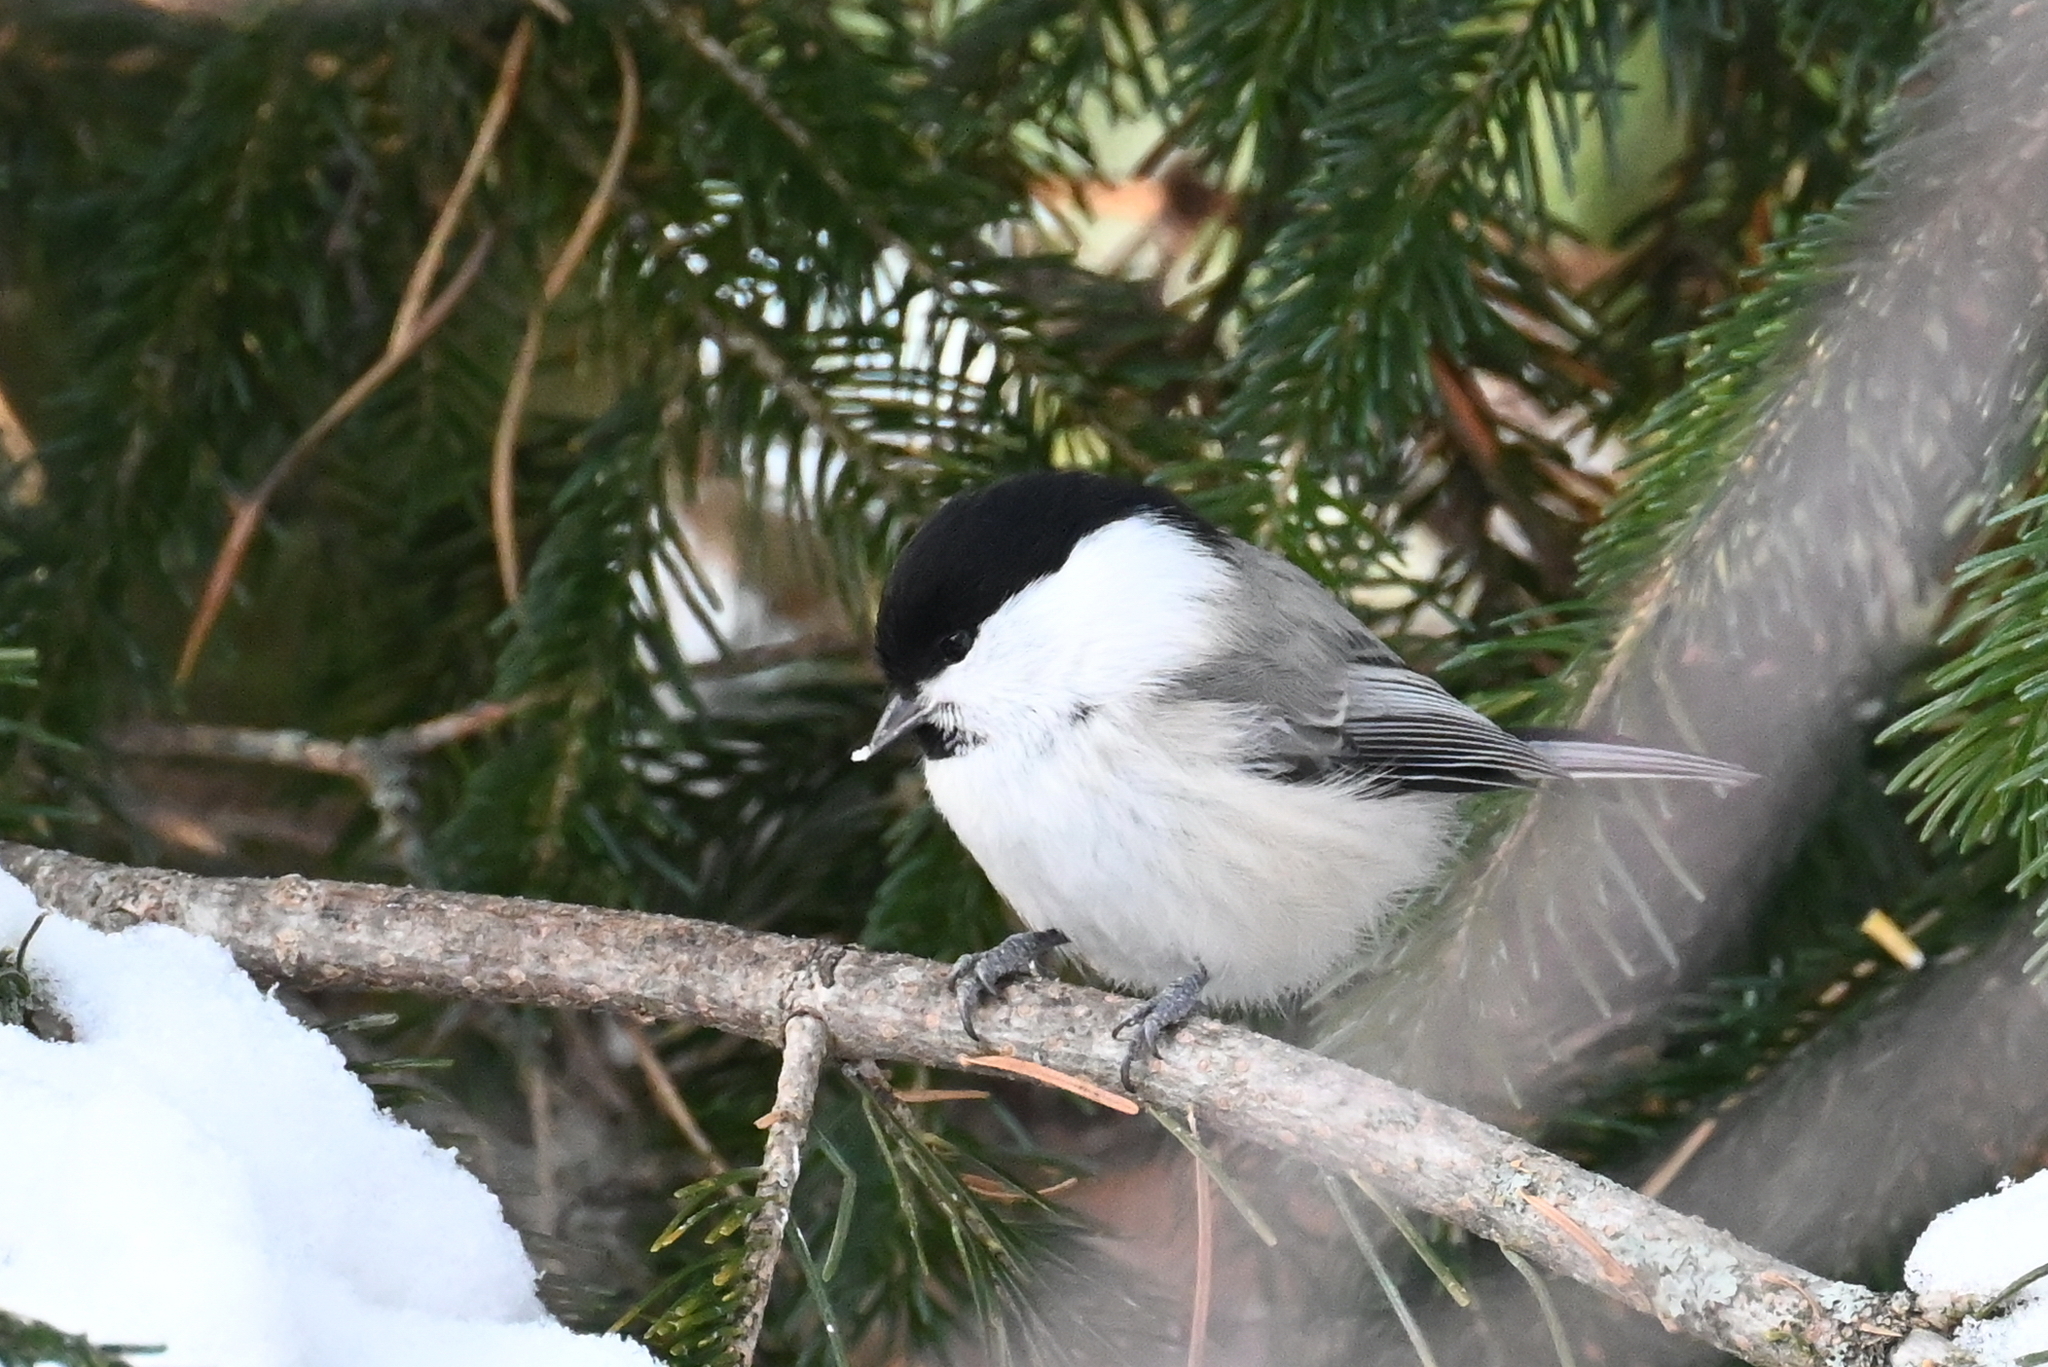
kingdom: Animalia
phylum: Chordata
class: Aves
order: Passeriformes
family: Paridae
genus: Poecile
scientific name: Poecile montanus
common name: Willow tit
